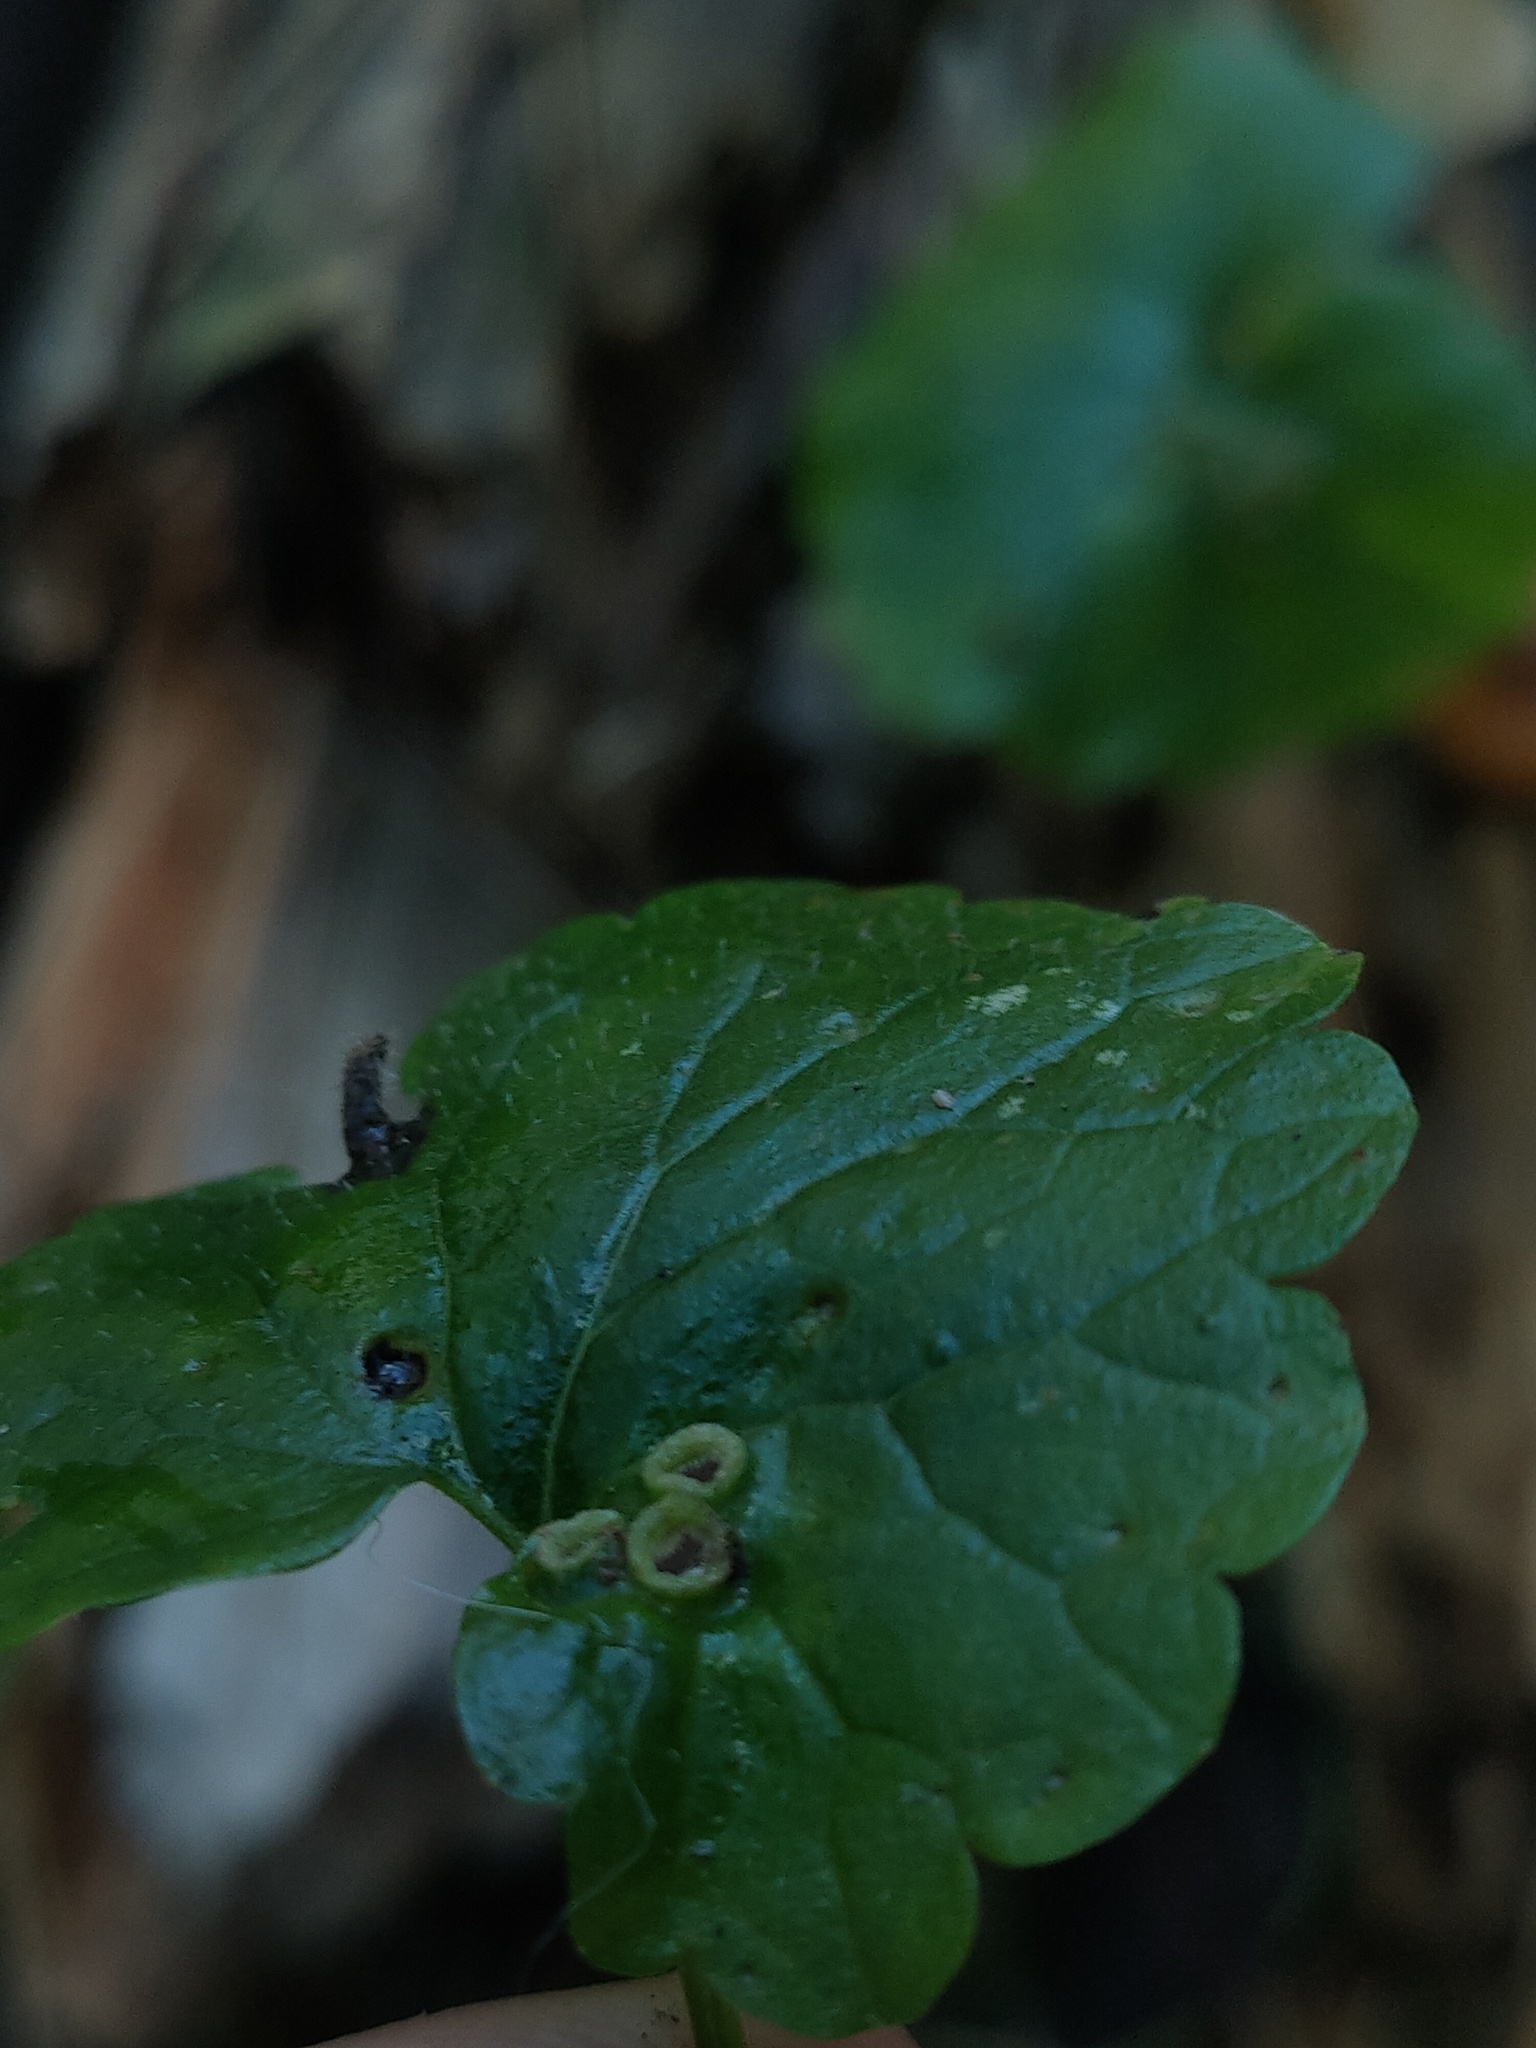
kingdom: Animalia
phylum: Arthropoda
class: Insecta
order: Diptera
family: Cecidomyiidae
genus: Rondaniola
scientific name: Rondaniola bursaria
